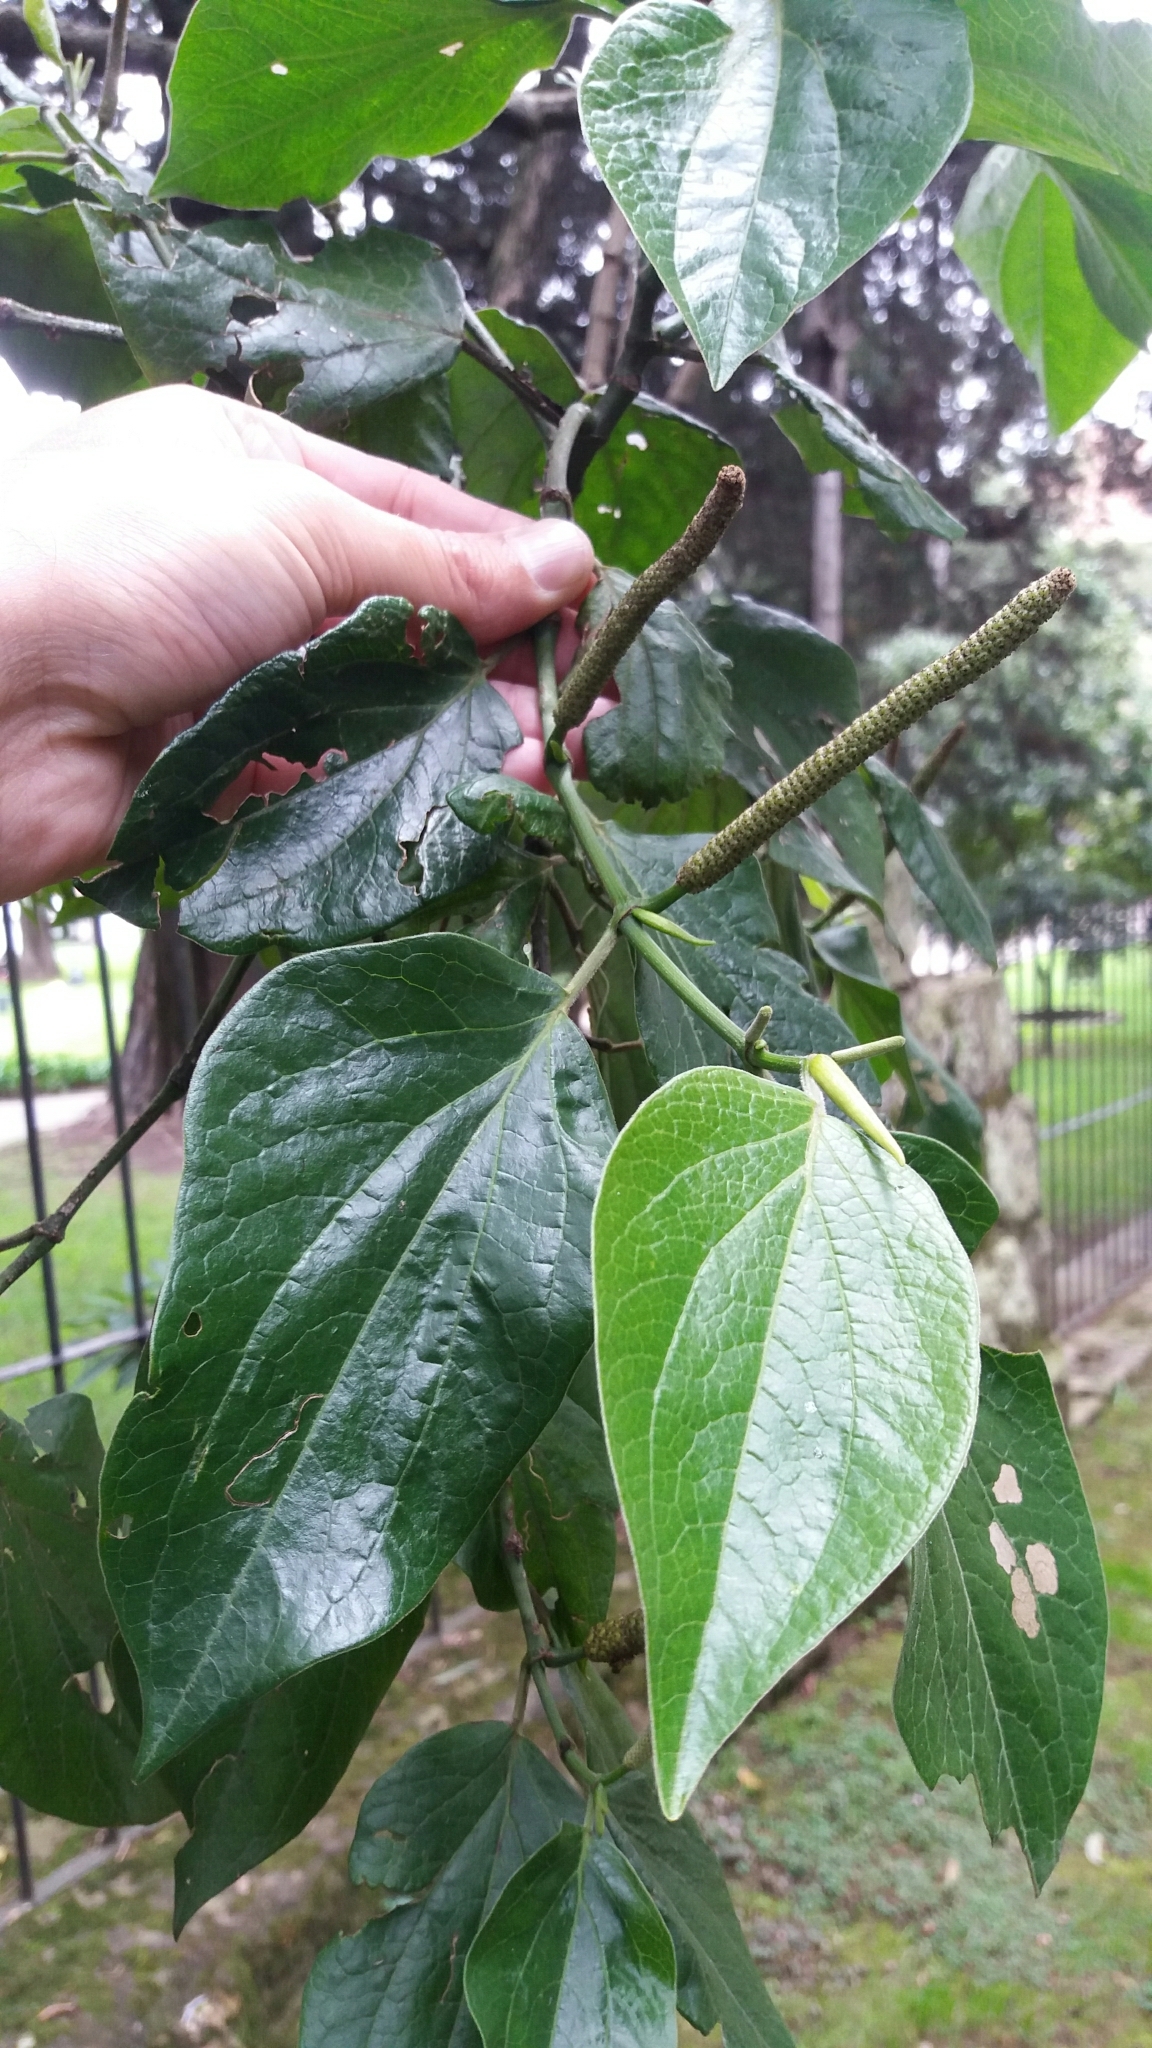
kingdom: Plantae
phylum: Tracheophyta
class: Magnoliopsida
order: Piperales
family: Piperaceae
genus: Piper
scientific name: Piper barbatum
